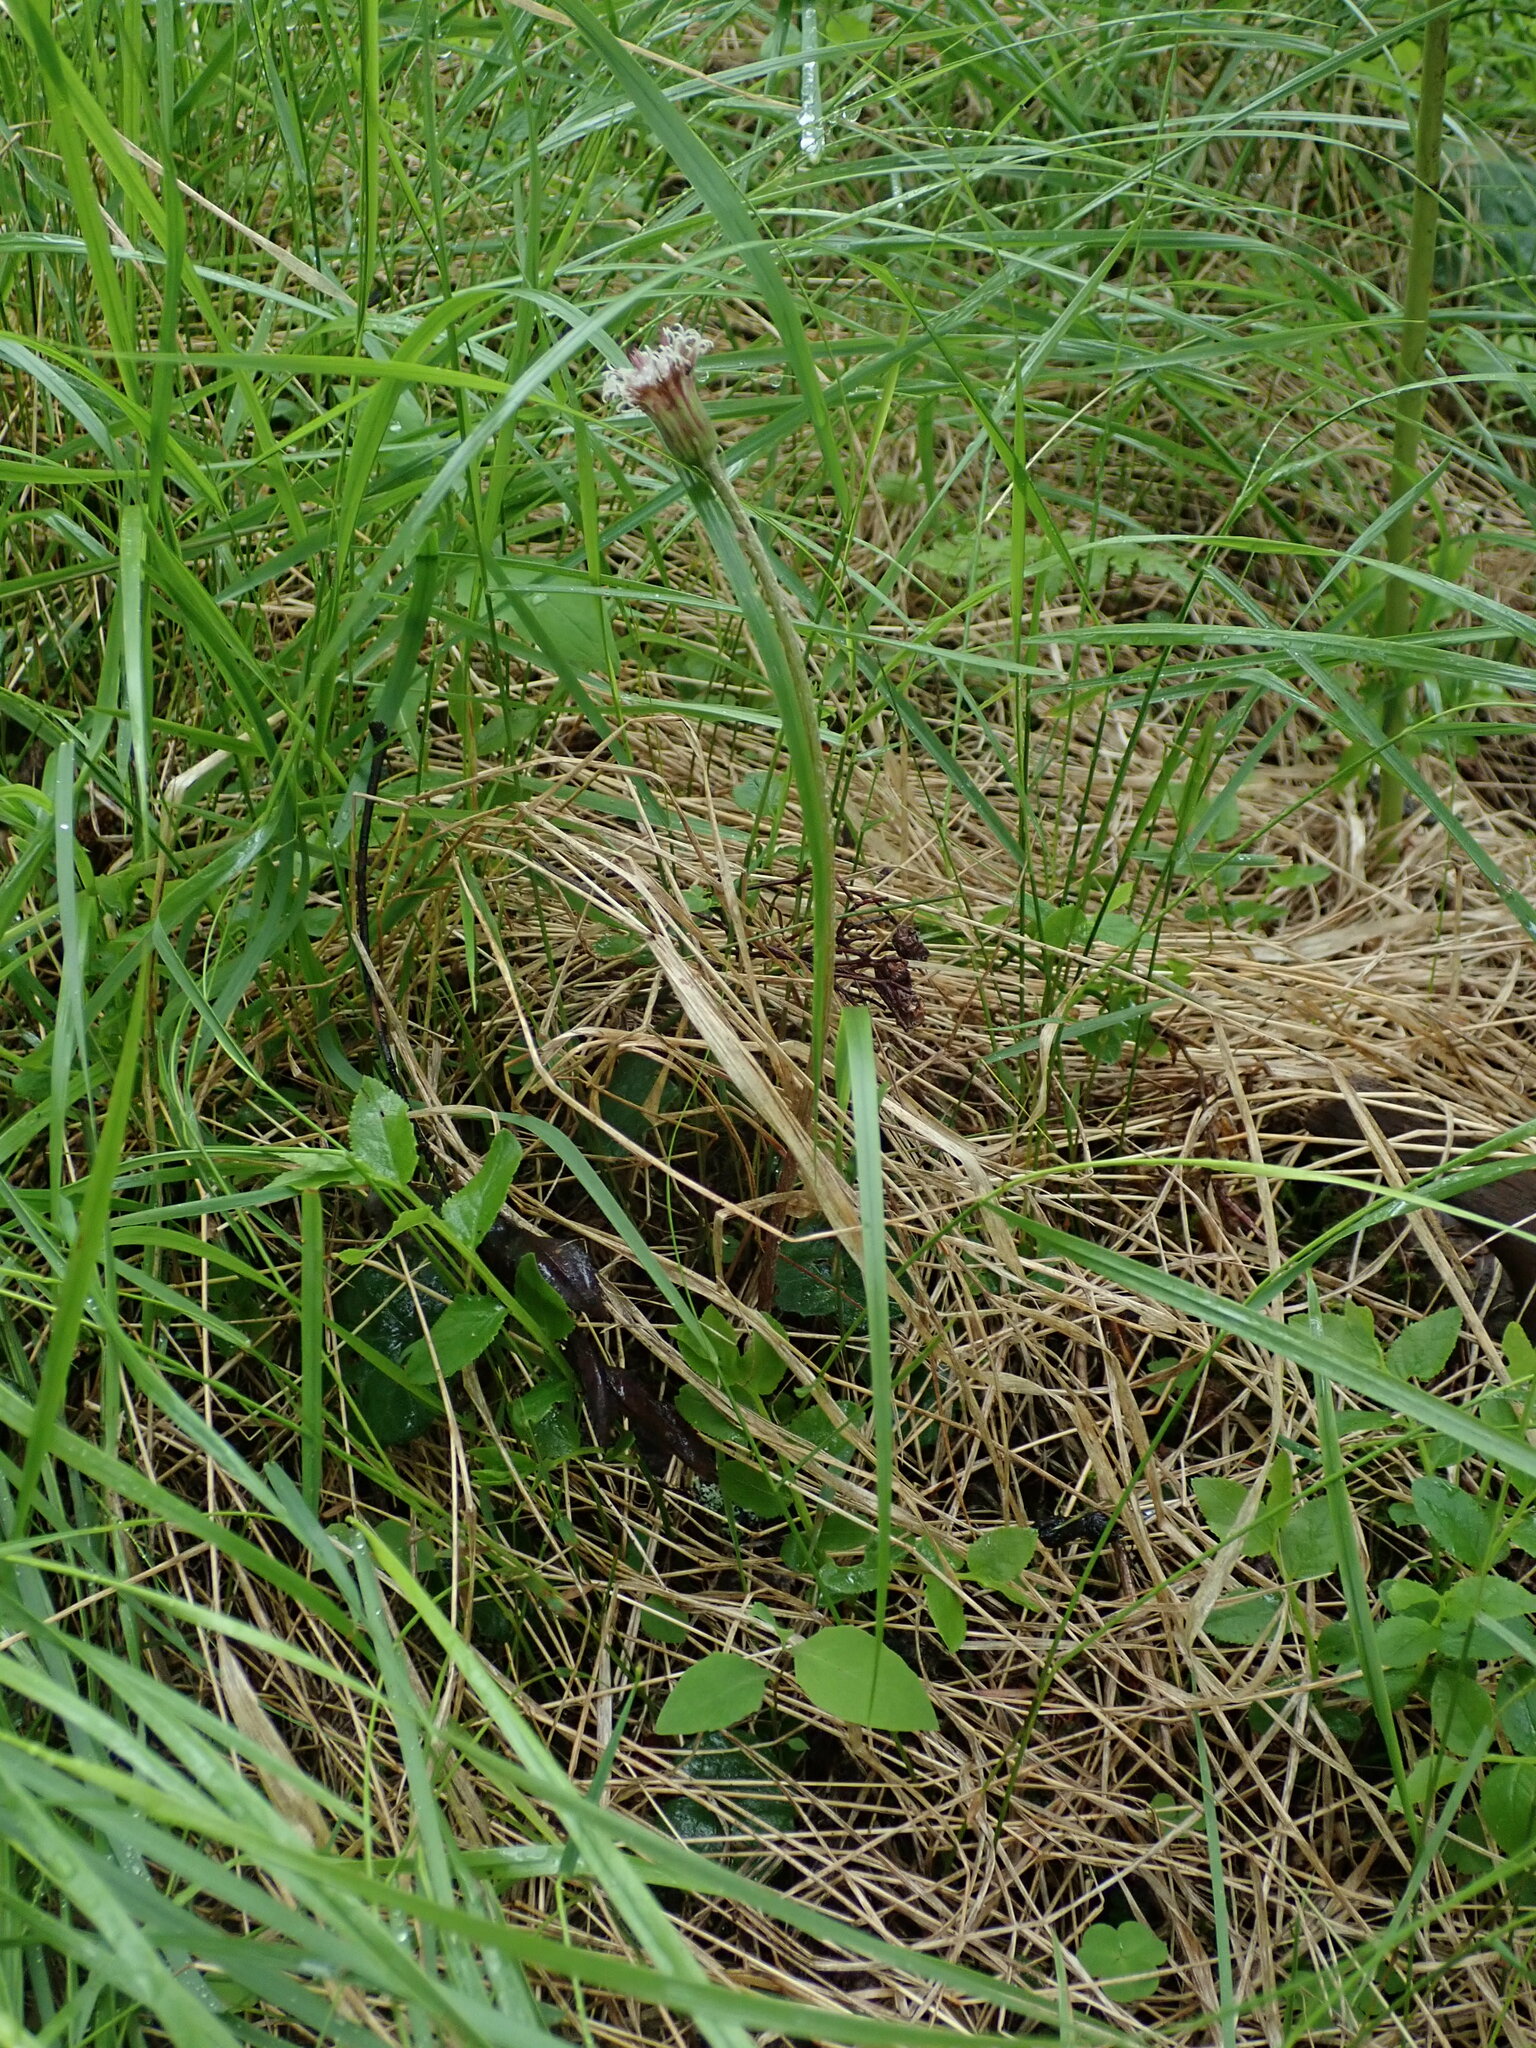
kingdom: Plantae
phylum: Tracheophyta
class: Magnoliopsida
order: Asterales
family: Asteraceae
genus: Homogyne
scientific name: Homogyne alpina
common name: Purple colt's-foot
